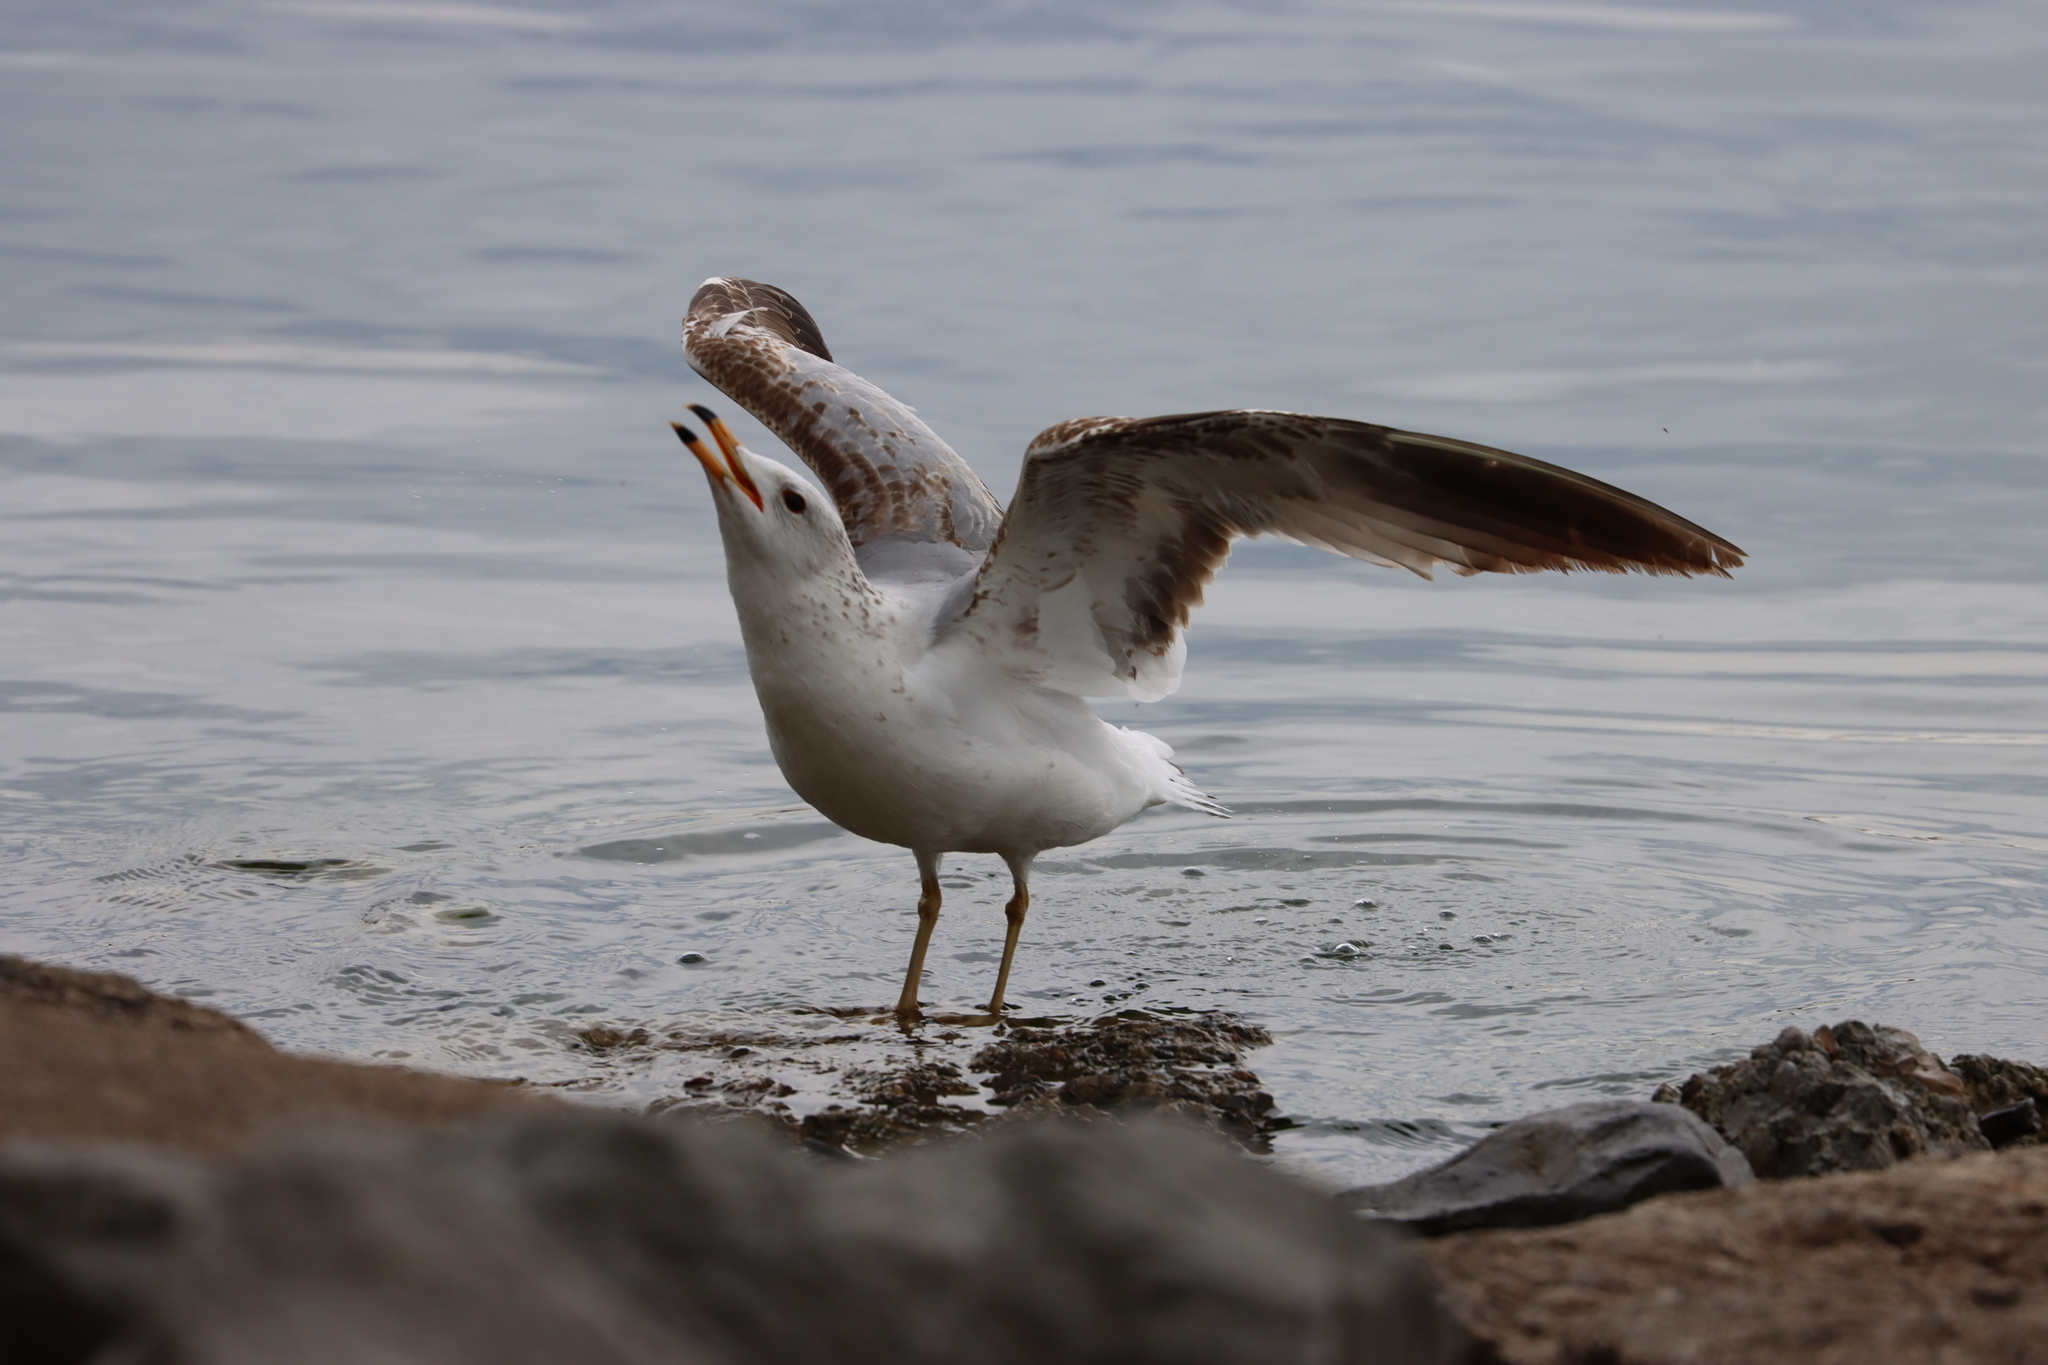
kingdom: Animalia
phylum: Chordata
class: Aves
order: Charadriiformes
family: Laridae
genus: Larus
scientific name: Larus delawarensis
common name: Ring-billed gull
